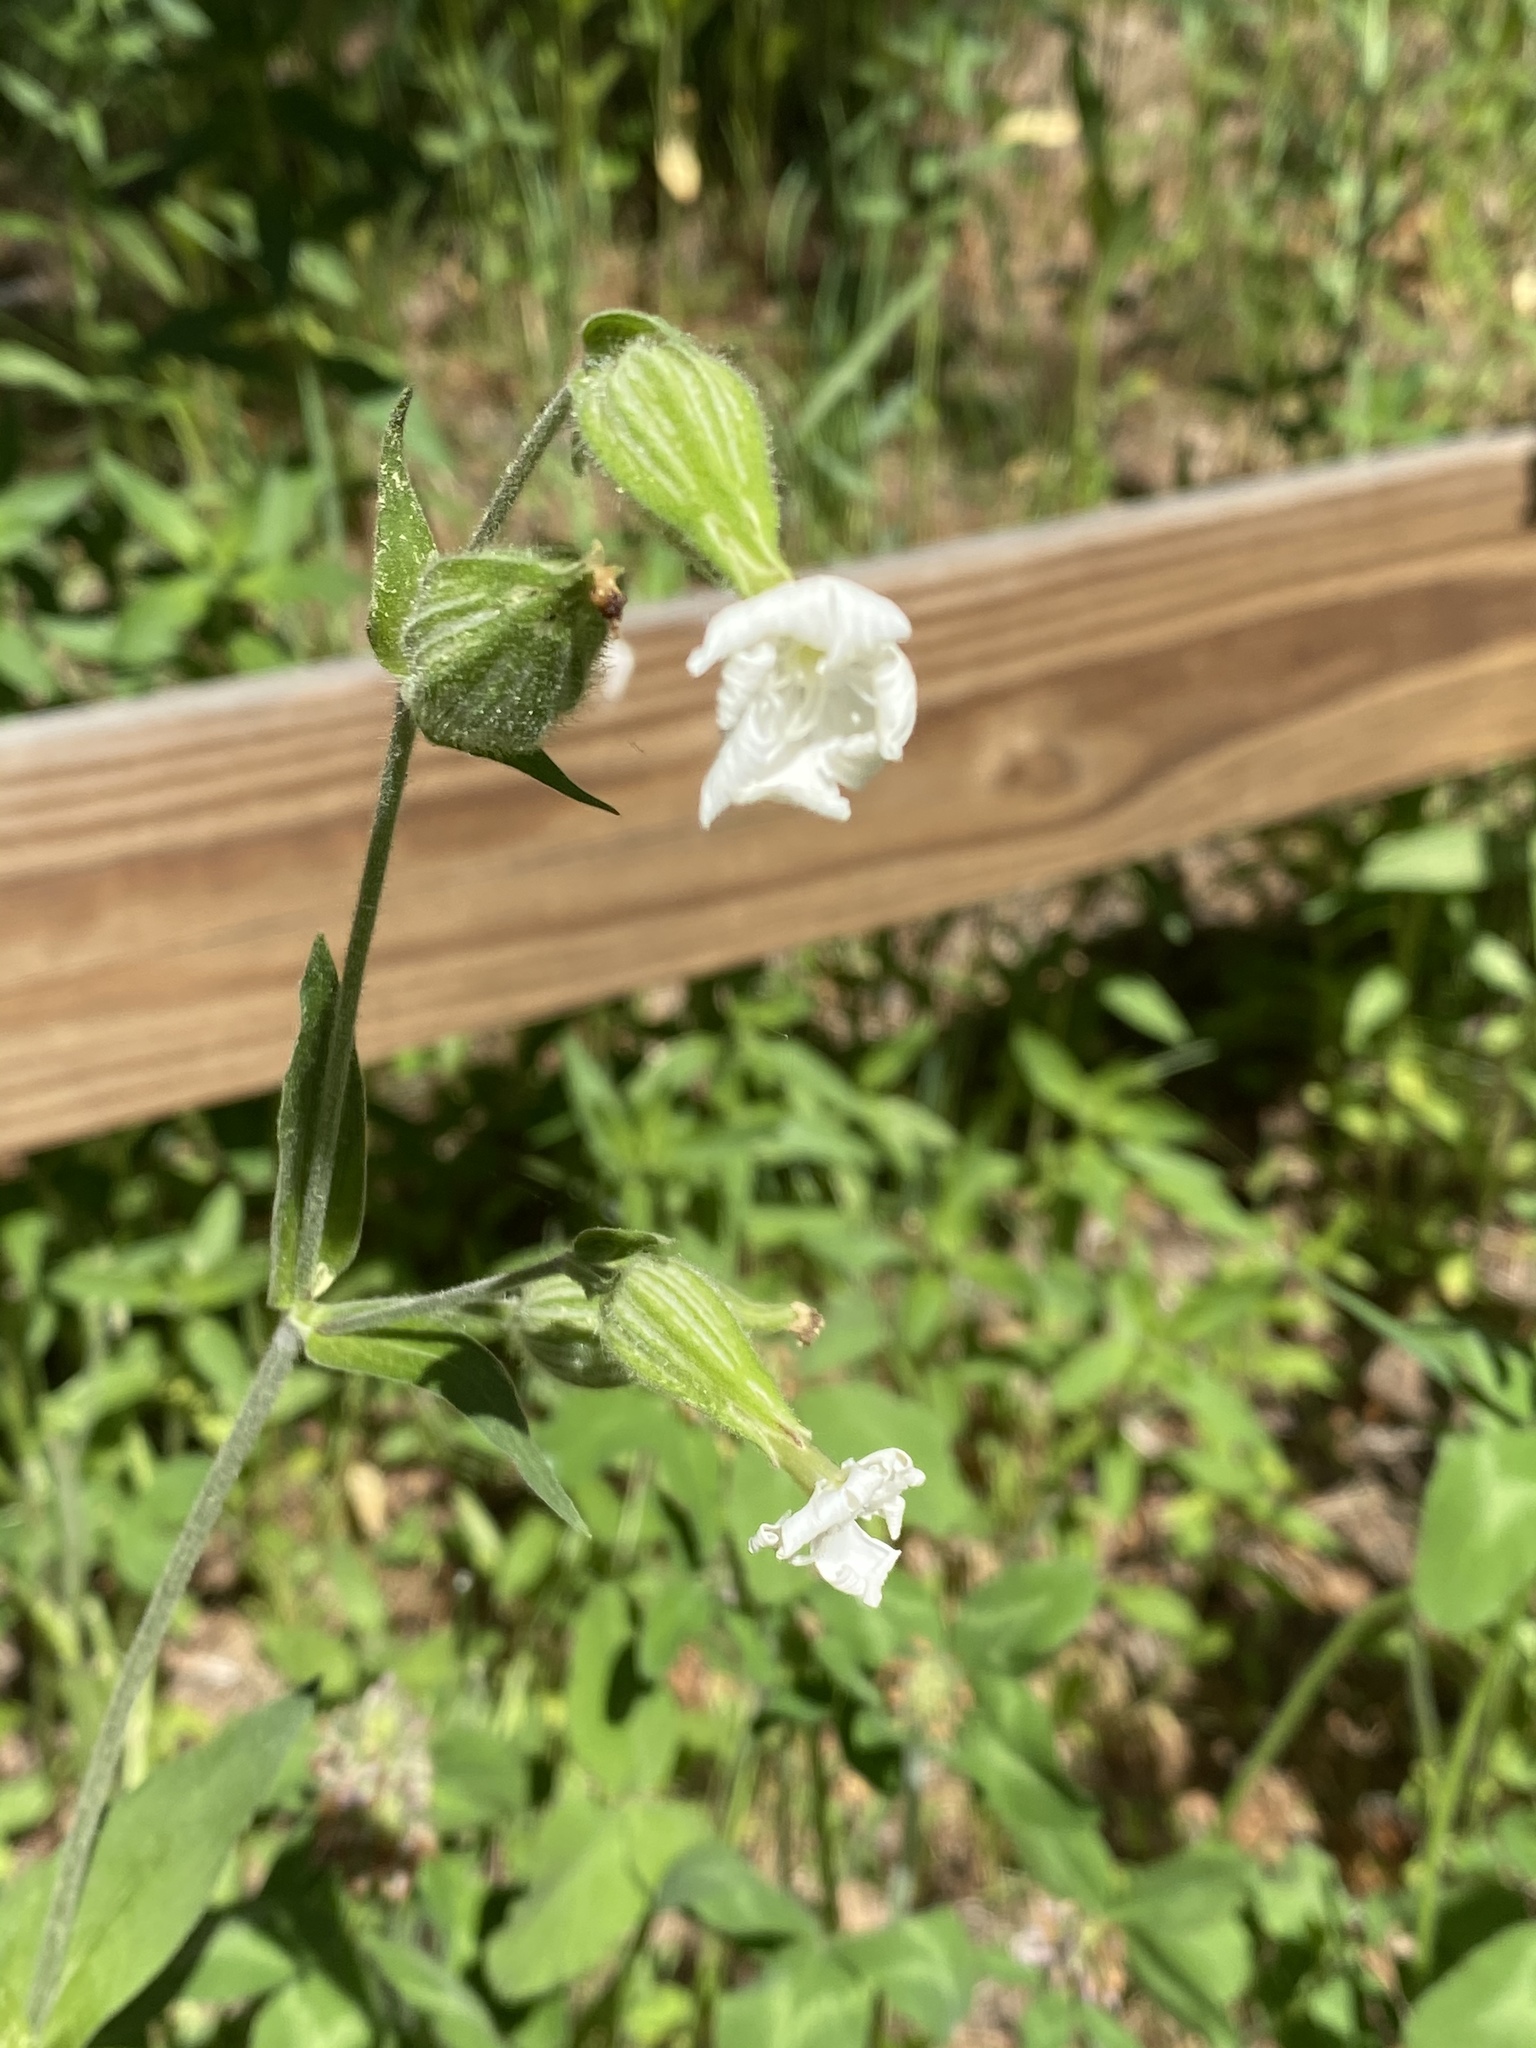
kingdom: Plantae
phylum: Tracheophyta
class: Magnoliopsida
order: Caryophyllales
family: Caryophyllaceae
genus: Silene
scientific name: Silene latifolia
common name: White campion
